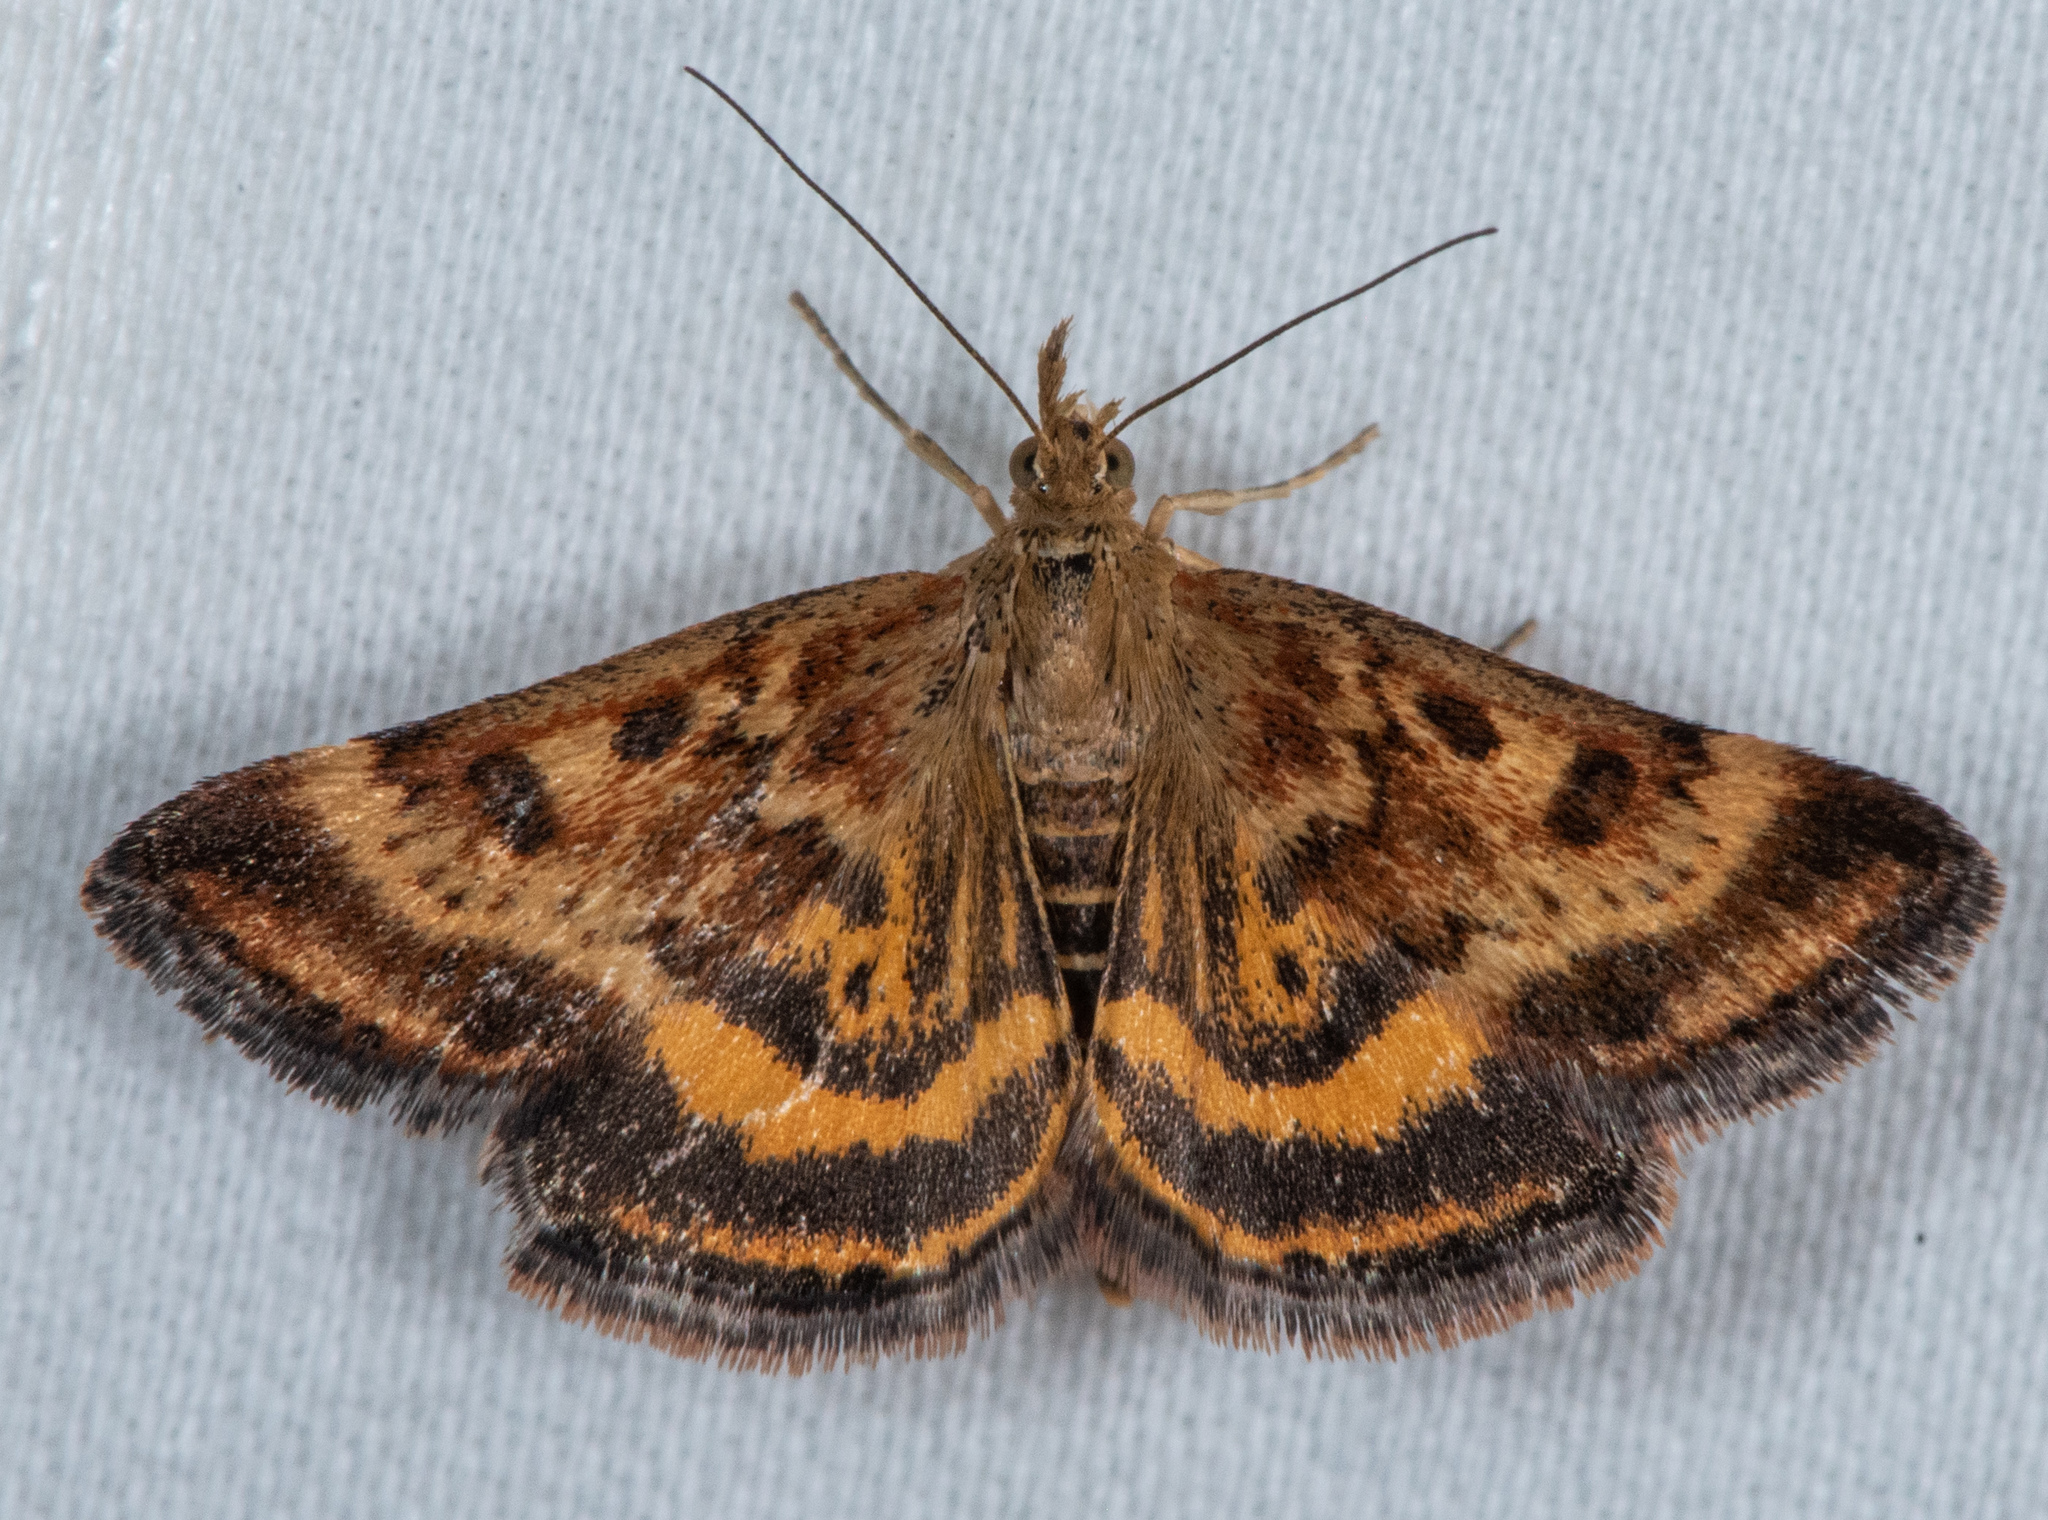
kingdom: Animalia
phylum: Arthropoda
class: Insecta
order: Lepidoptera
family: Crambidae
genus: Pyrausta
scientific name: Pyrausta subsequalis
